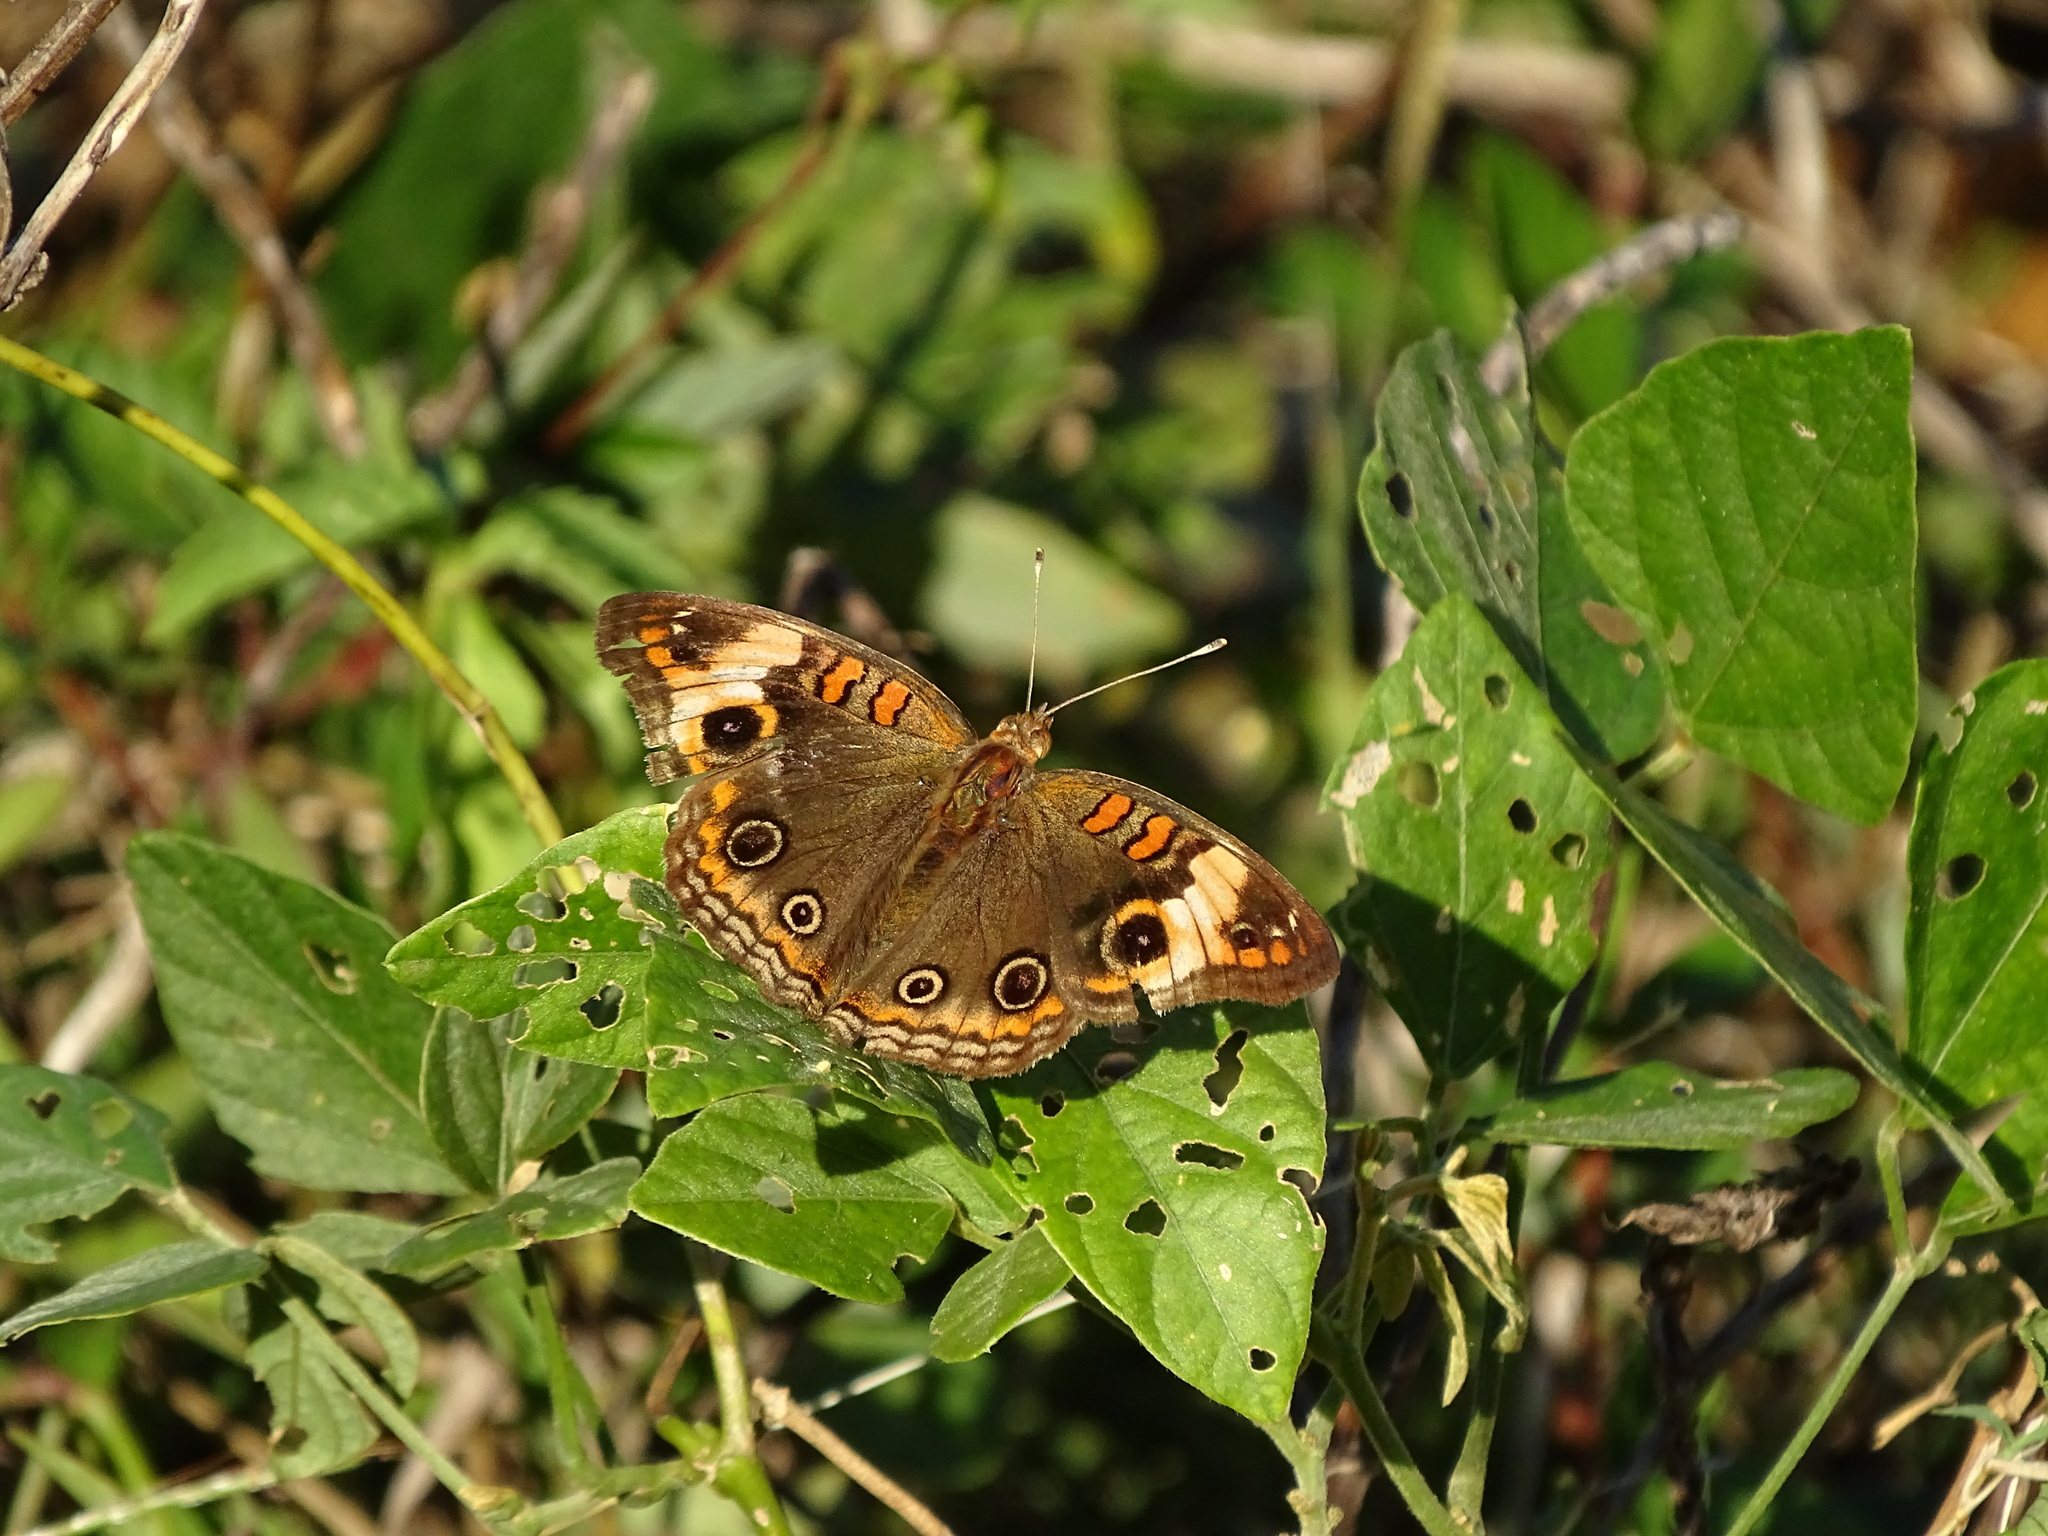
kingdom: Animalia
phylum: Arthropoda
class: Insecta
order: Lepidoptera
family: Nymphalidae
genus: Junonia
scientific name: Junonia lavinia
